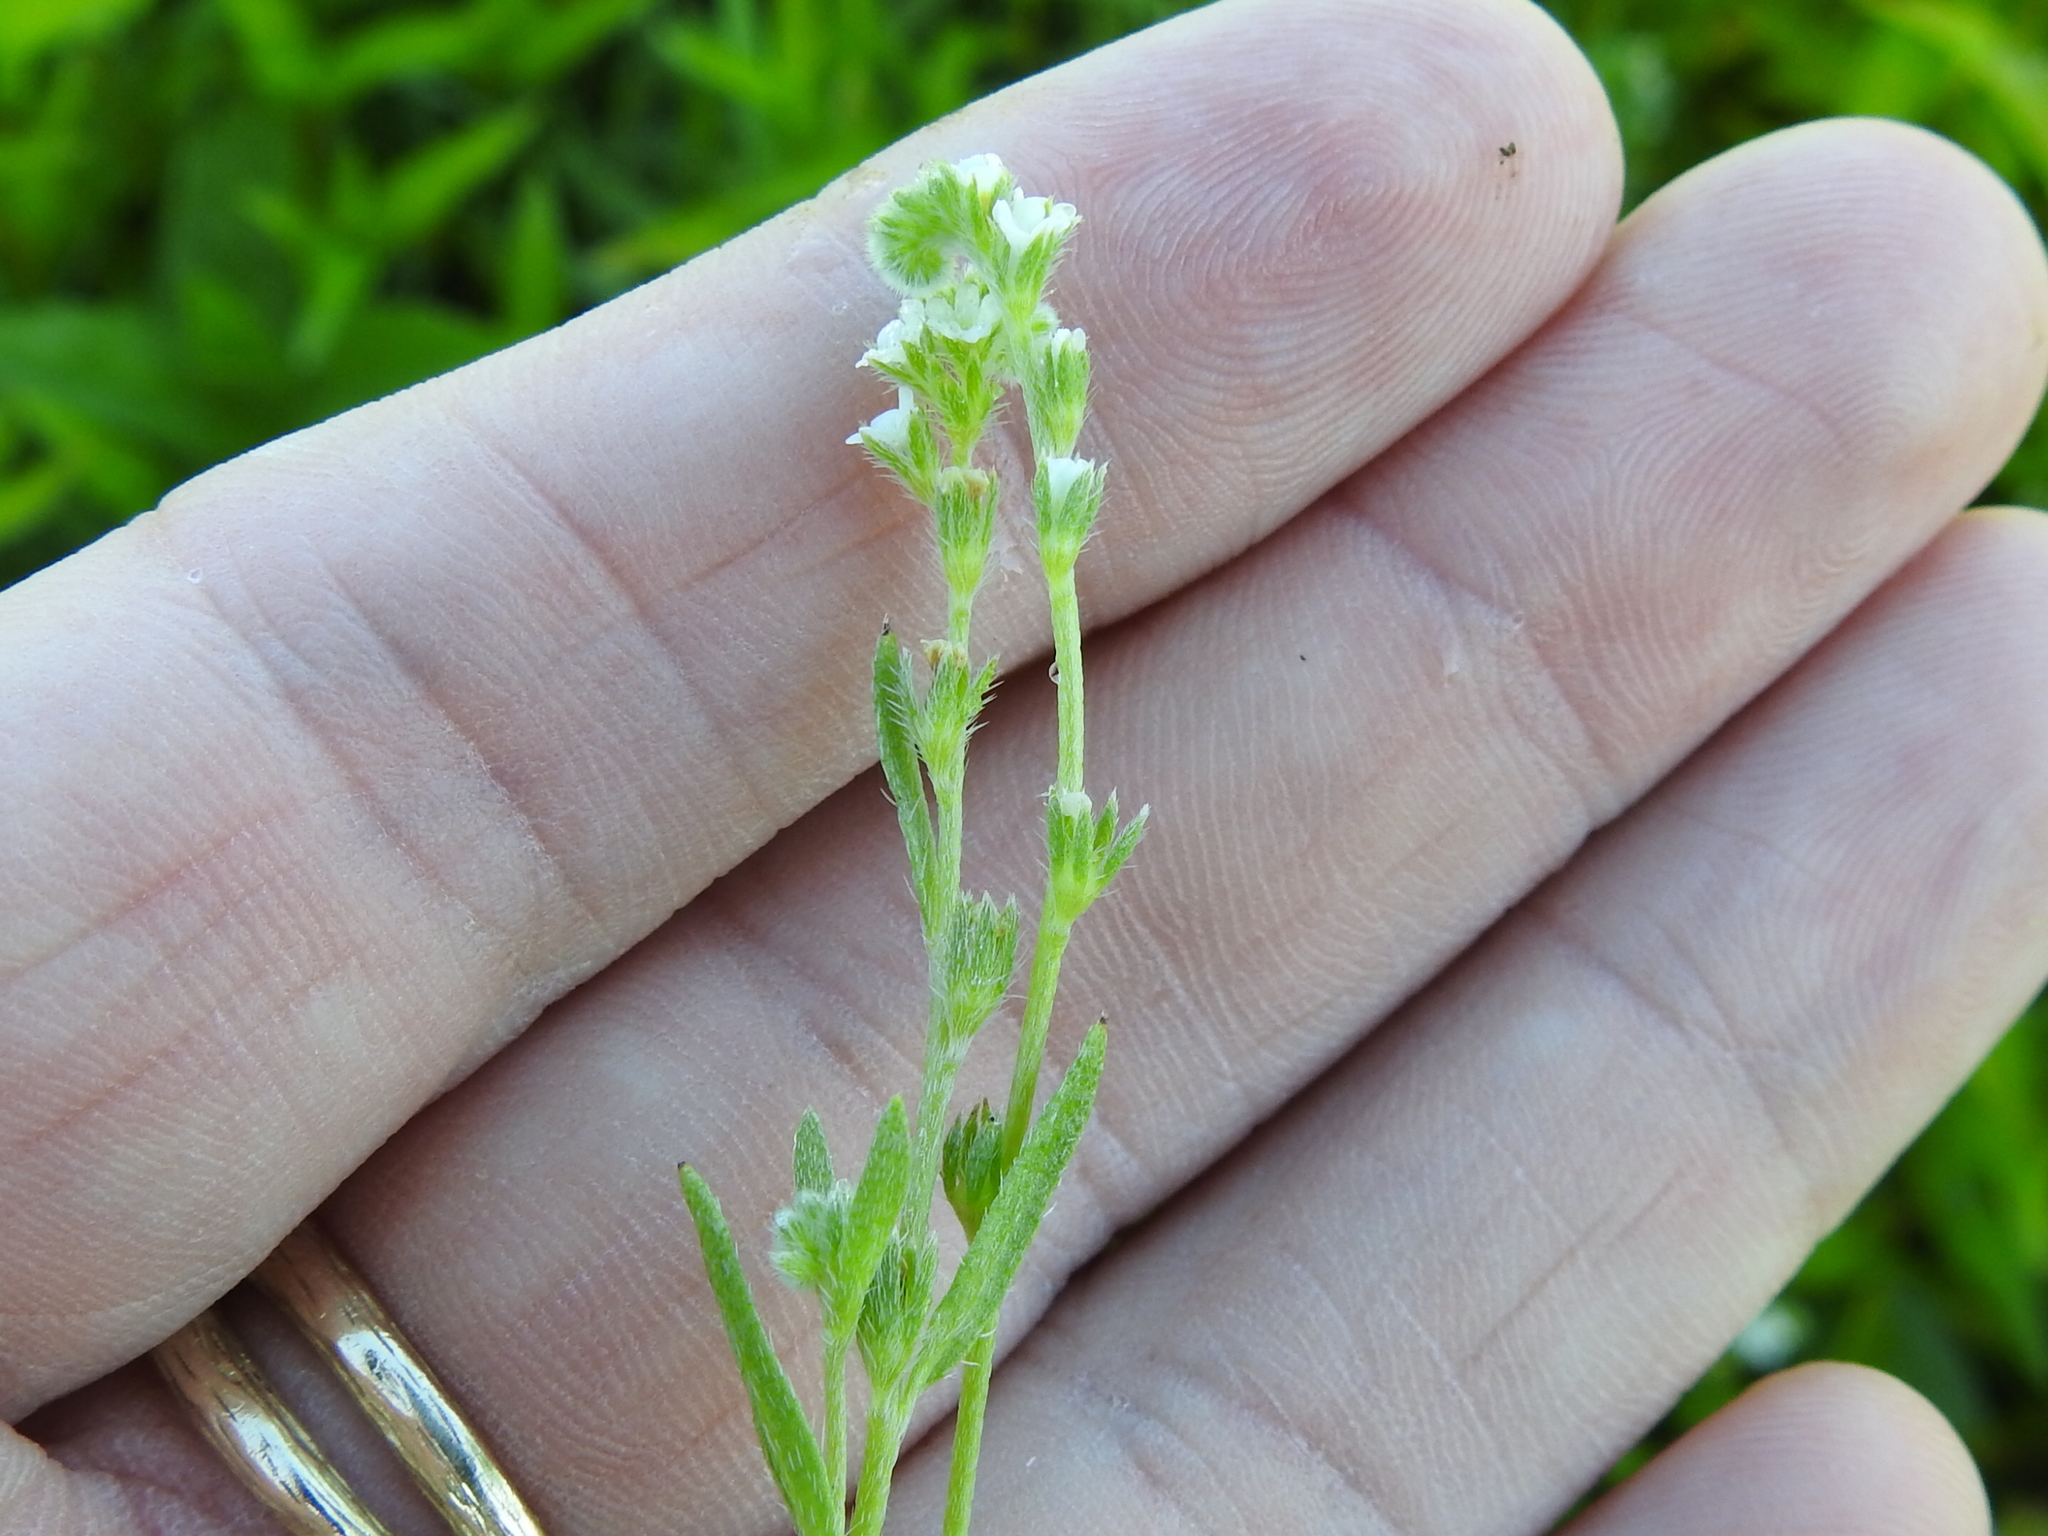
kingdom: Plantae
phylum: Tracheophyta
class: Magnoliopsida
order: Boraginales
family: Boraginaceae
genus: Plagiobothrys
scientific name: Plagiobothrys scouleri
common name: White forget-me-not
